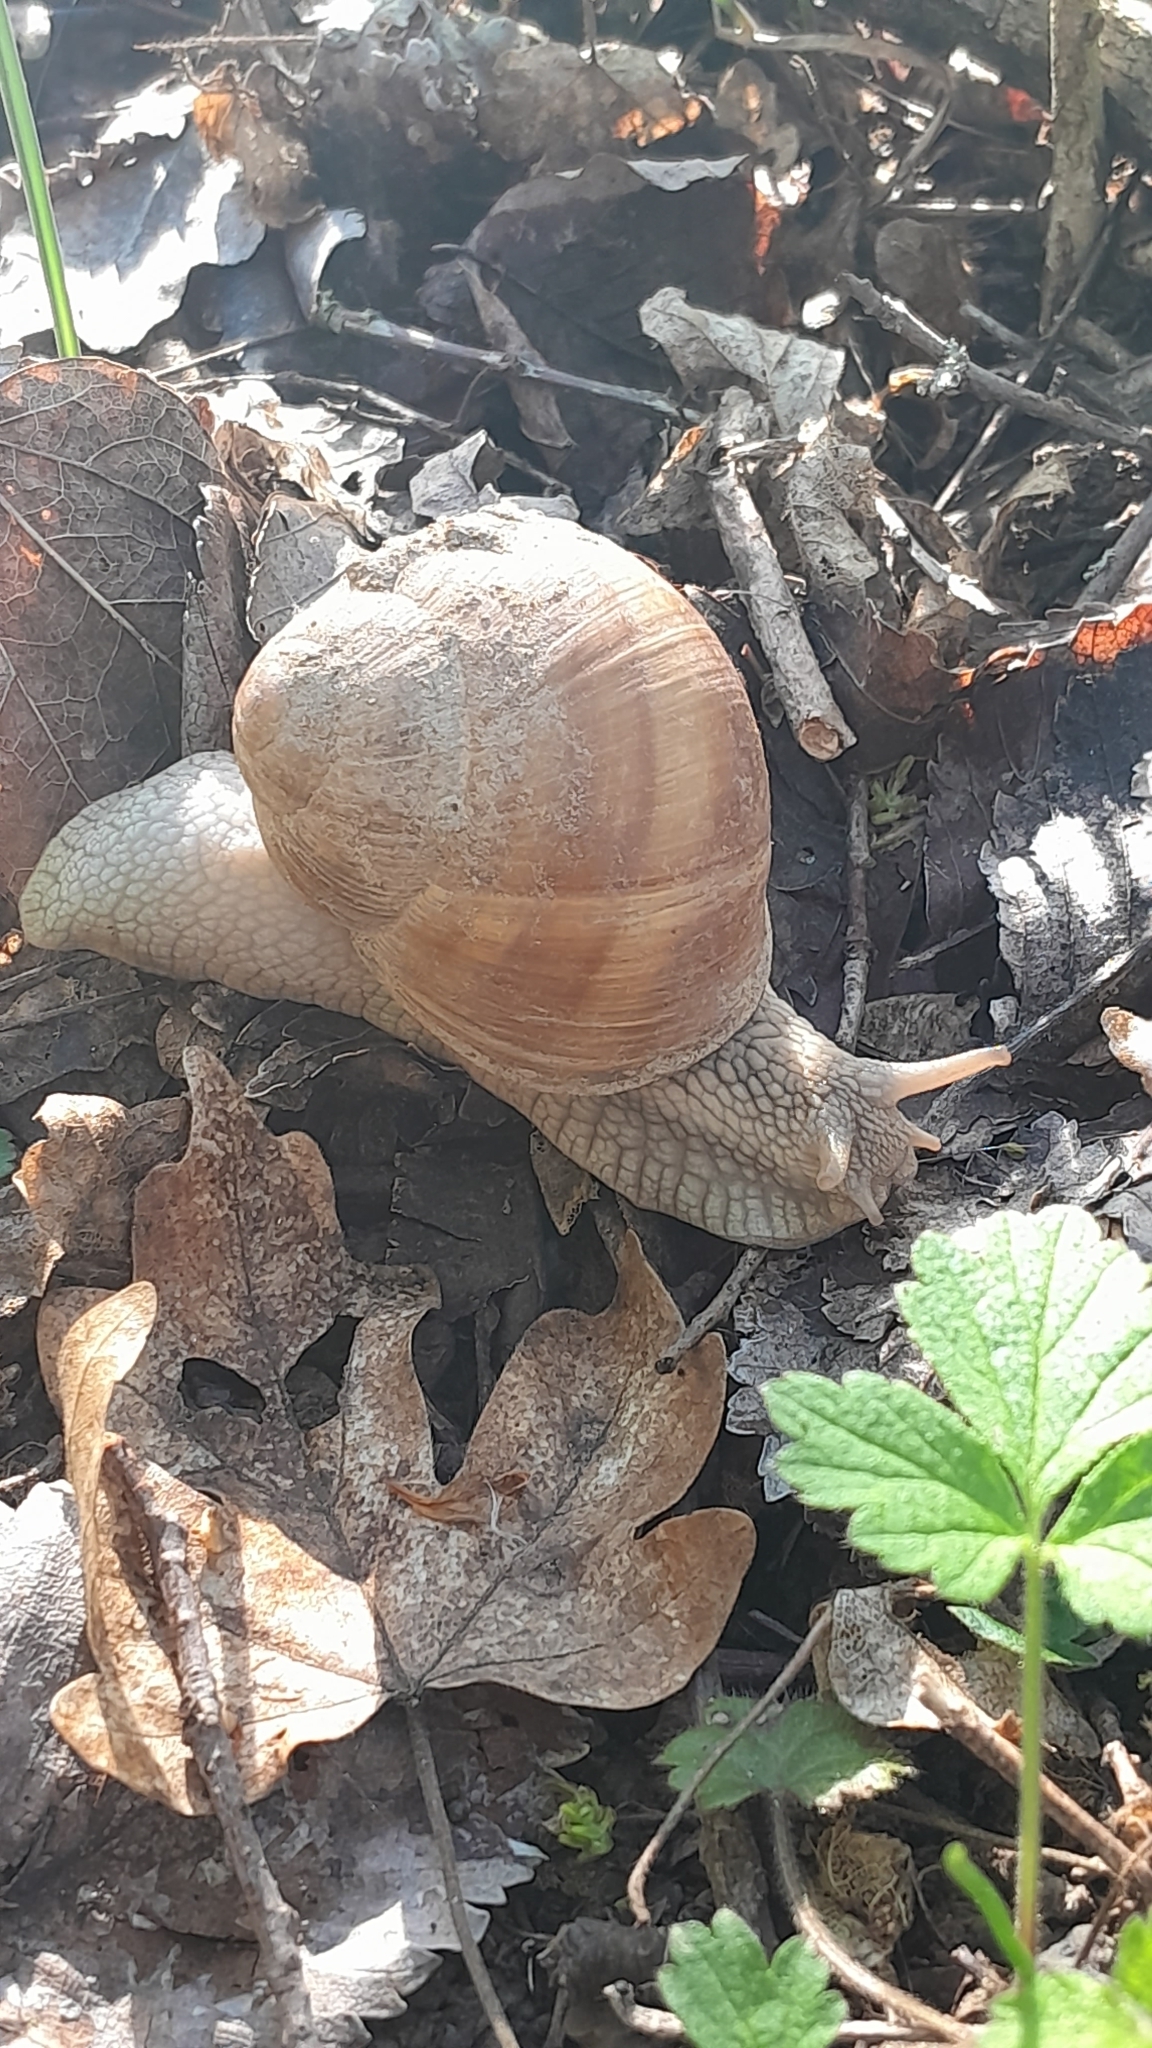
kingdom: Animalia
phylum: Mollusca
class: Gastropoda
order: Stylommatophora
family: Helicidae
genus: Helix
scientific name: Helix pomatia
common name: Roman snail
